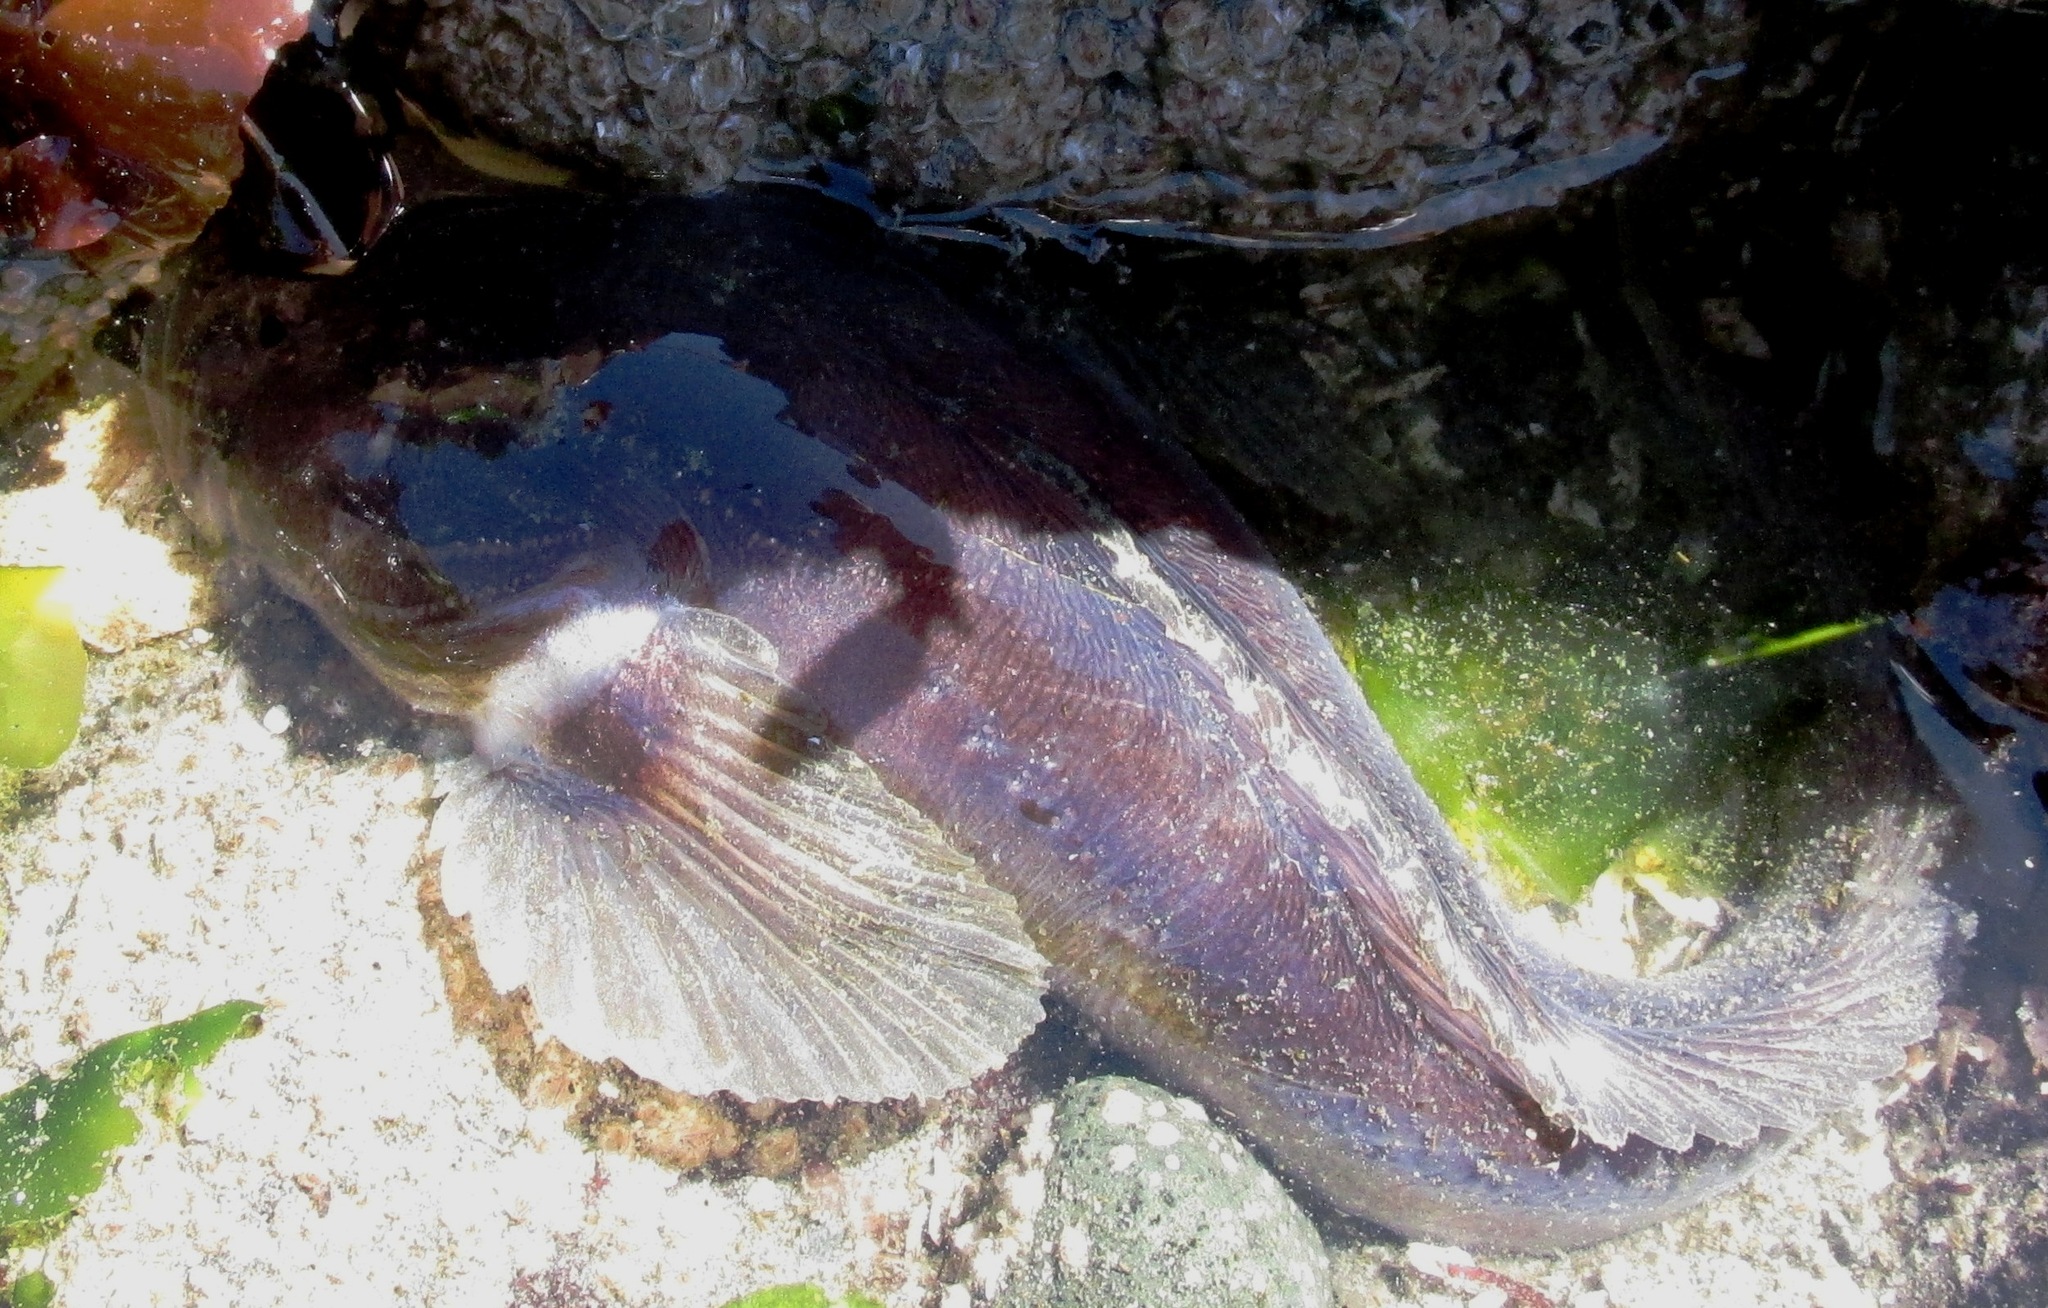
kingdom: Animalia
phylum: Chordata
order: Batrachoidiformes
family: Batrachoididae
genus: Porichthys
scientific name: Porichthys notatus
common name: Plainfin midshipman
